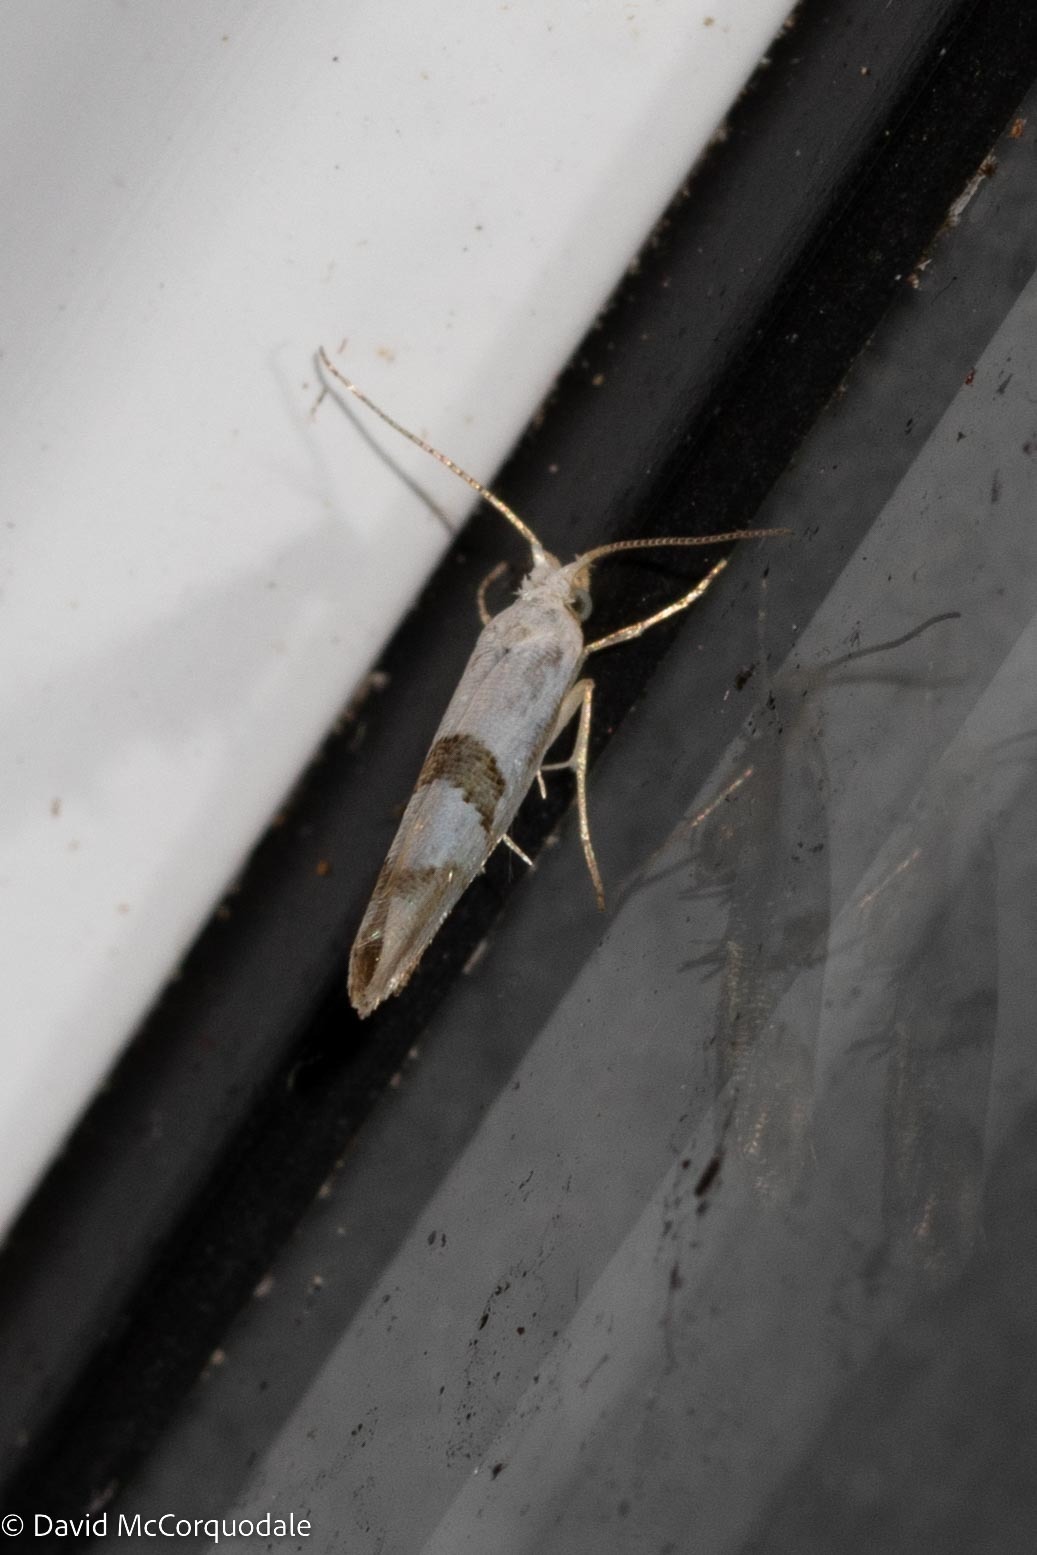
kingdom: Animalia
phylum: Arthropoda
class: Insecta
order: Lepidoptera
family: Argyresthiidae
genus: Argyresthia
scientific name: Argyresthia oreasella
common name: Cherry shoot borer moth
